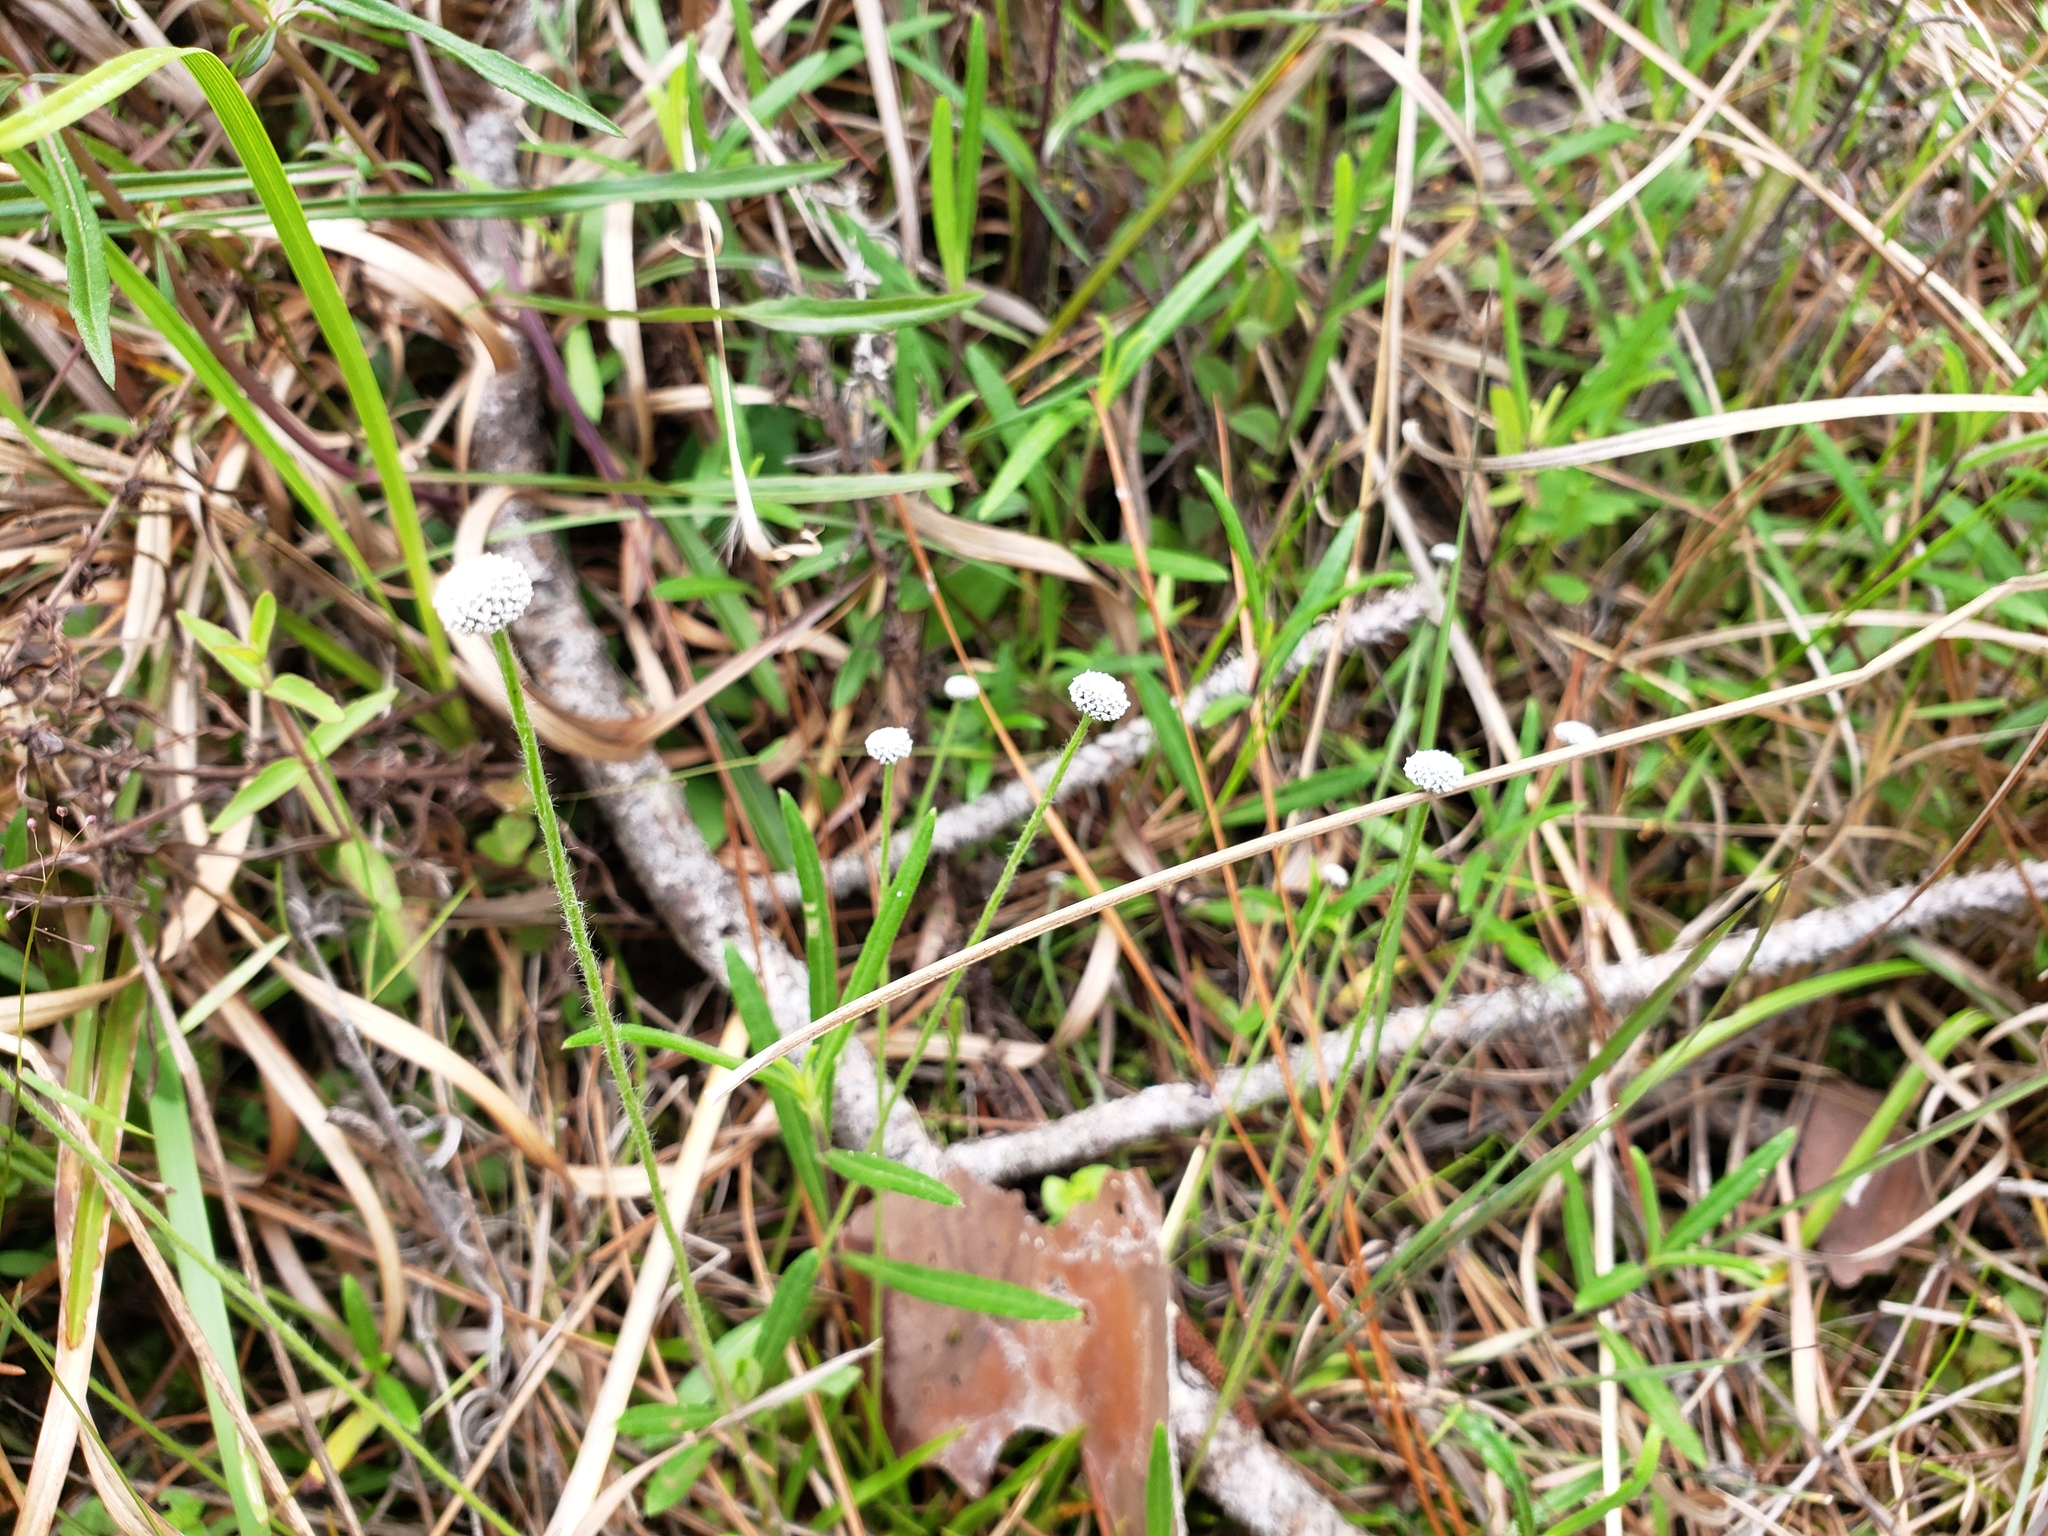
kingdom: Plantae
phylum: Tracheophyta
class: Liliopsida
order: Poales
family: Eriocaulaceae
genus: Paepalanthus
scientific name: Paepalanthus anceps
